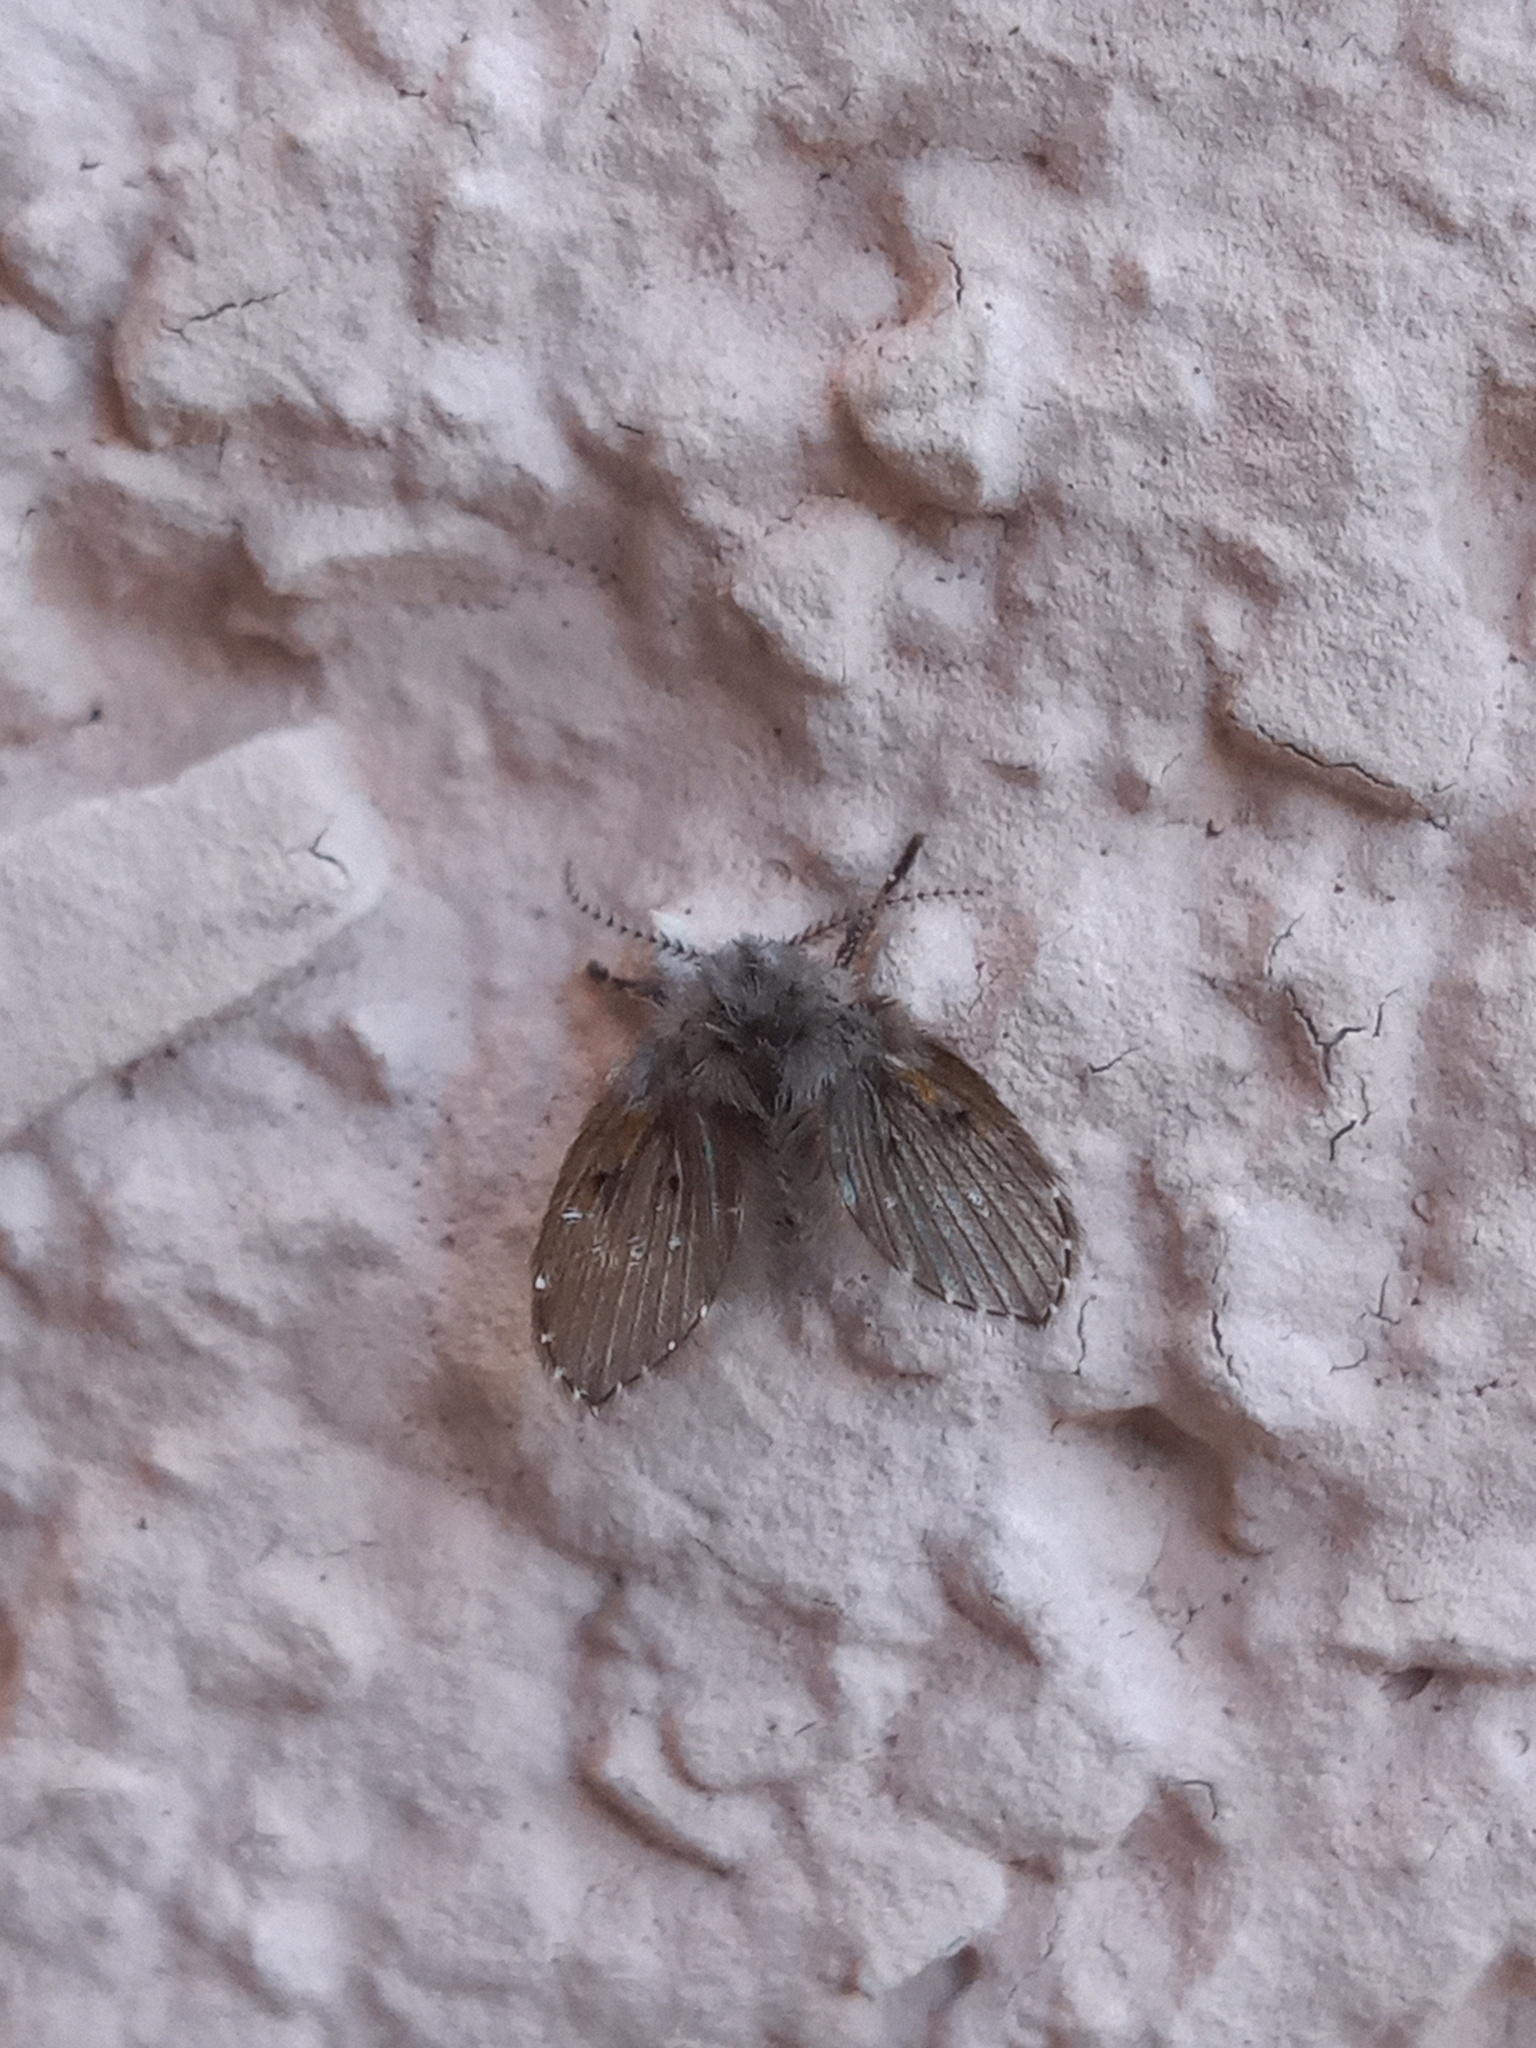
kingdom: Animalia
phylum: Arthropoda
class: Insecta
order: Diptera
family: Psychodidae
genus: Clogmia
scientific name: Clogmia albipunctatus
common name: White-spotted moth fly
